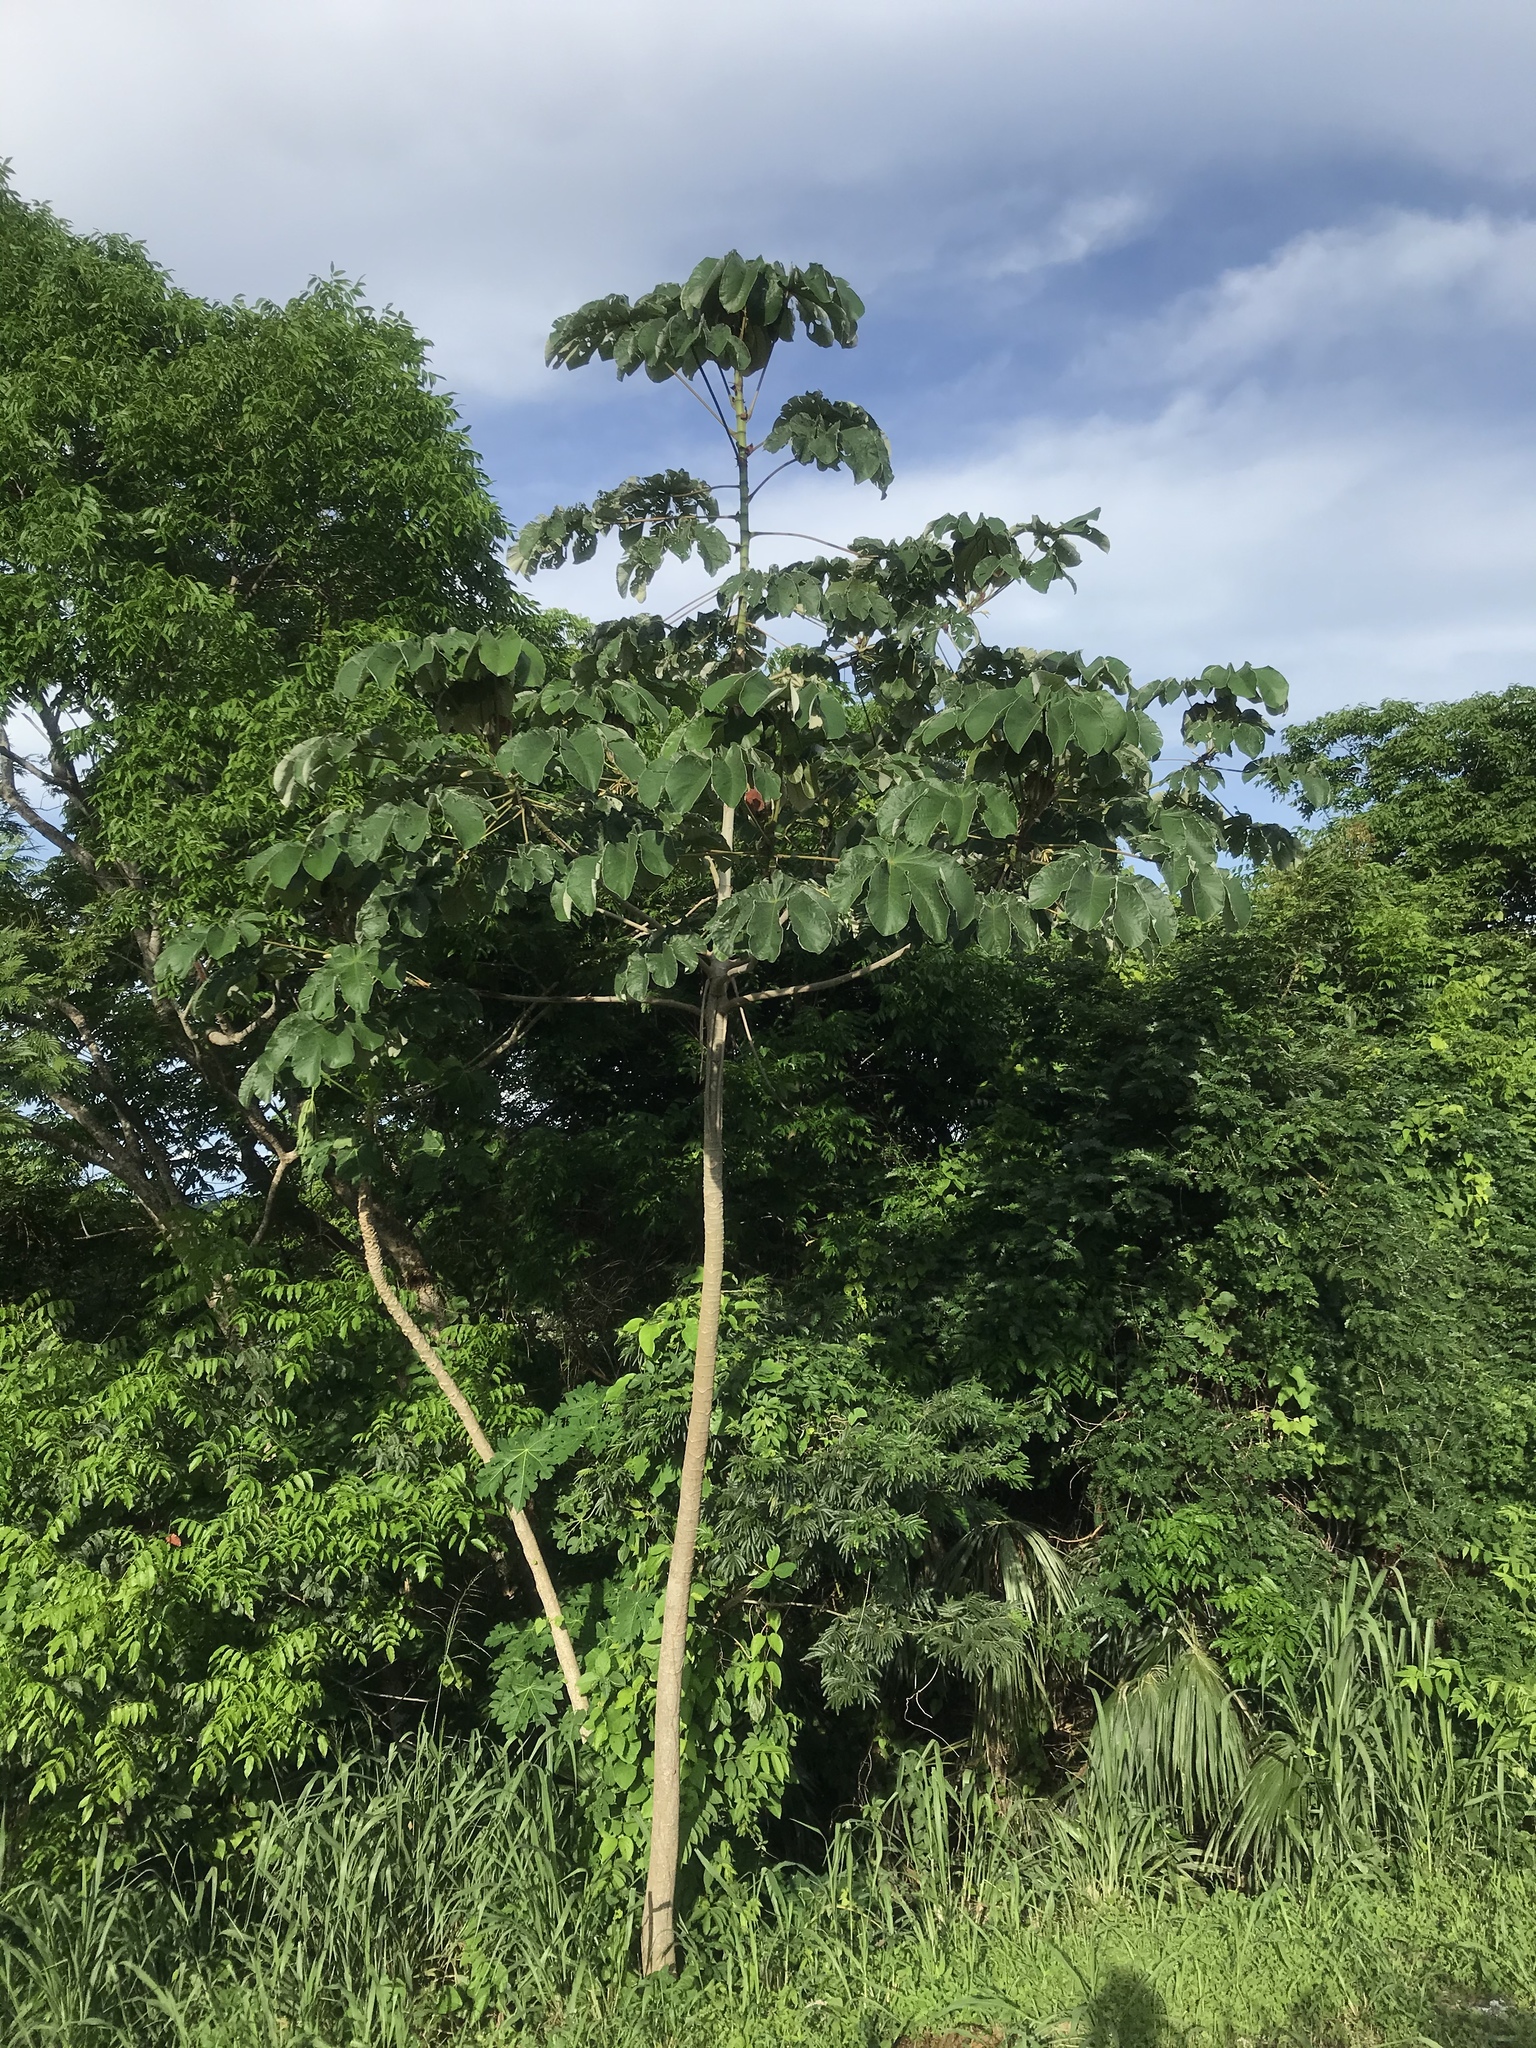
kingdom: Plantae
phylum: Tracheophyta
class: Magnoliopsida
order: Rosales
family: Urticaceae
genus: Cecropia
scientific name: Cecropia peltata
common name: Trumpet-tree
